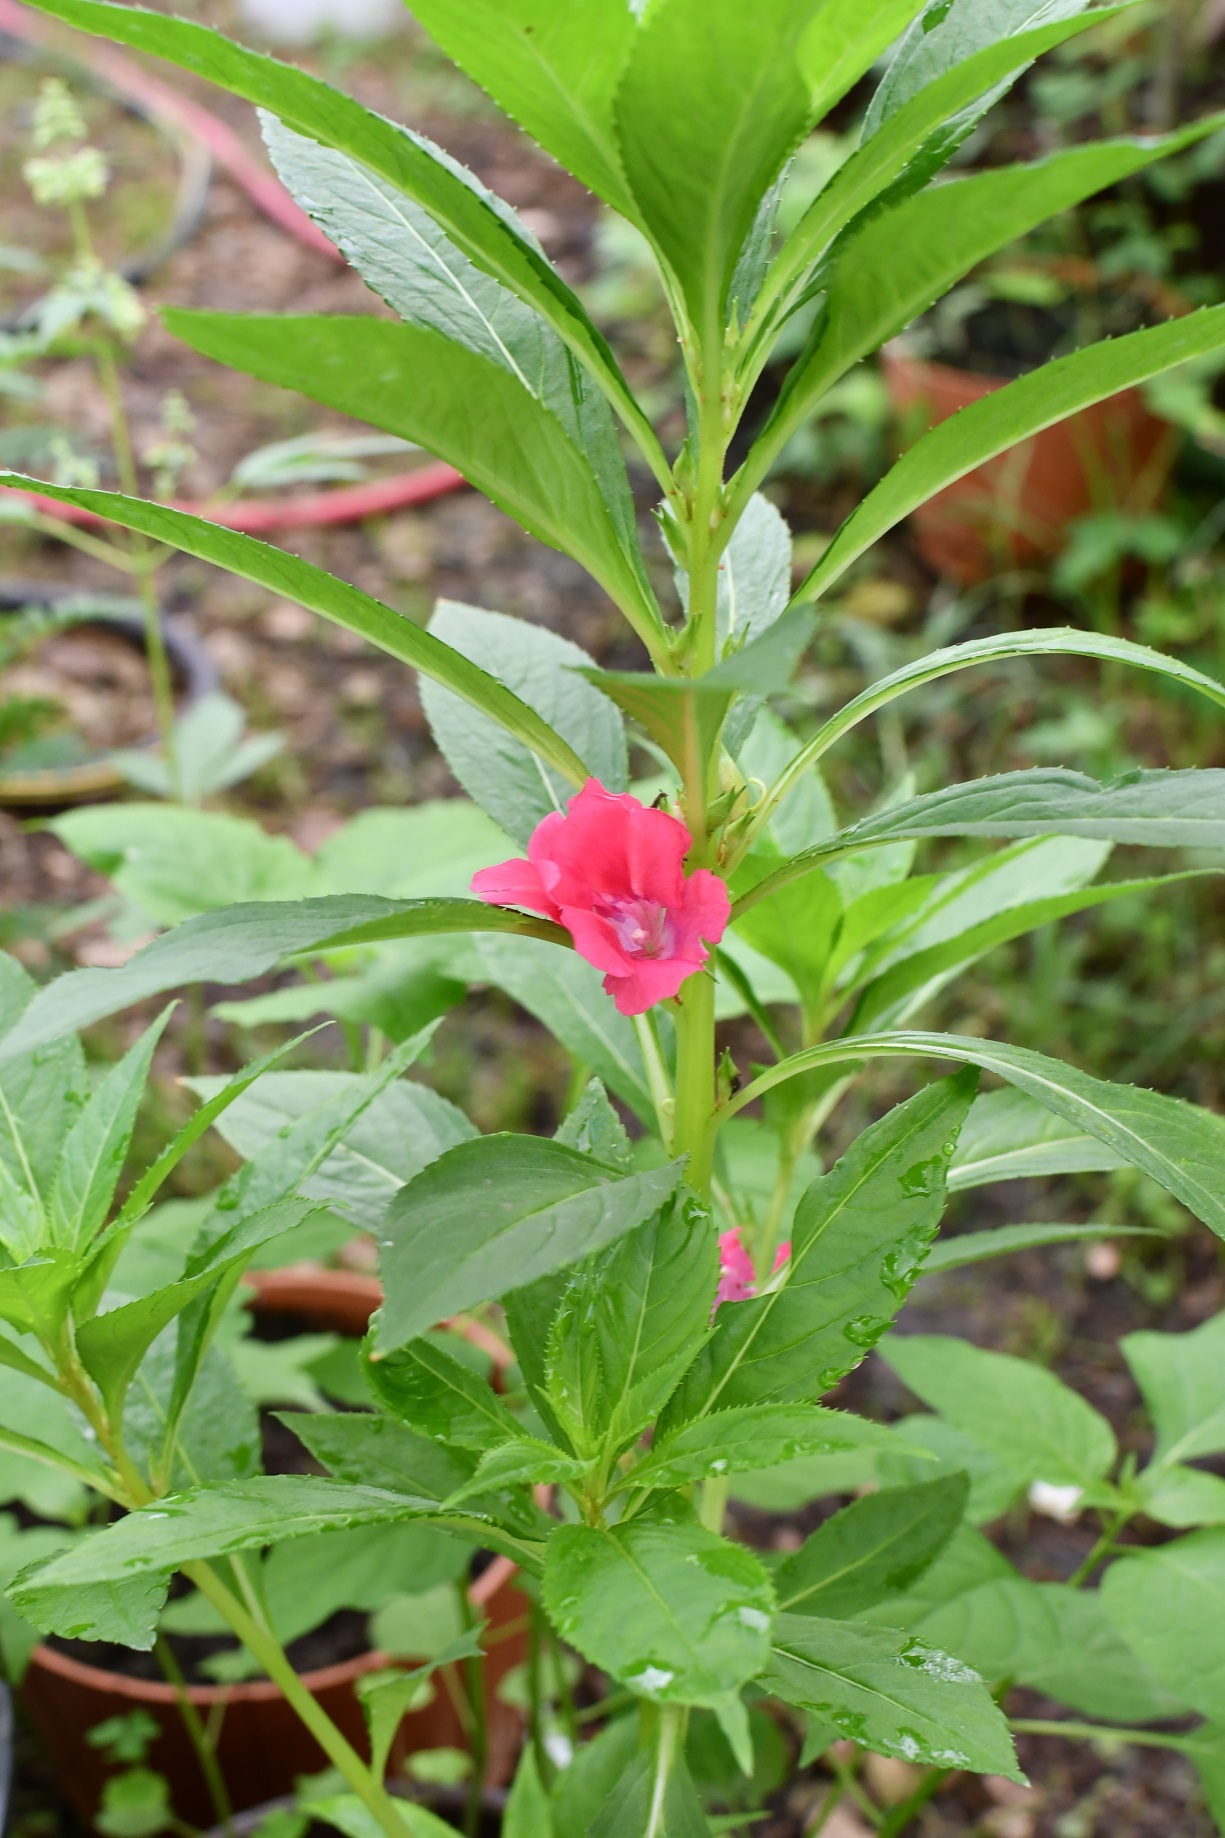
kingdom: Plantae
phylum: Tracheophyta
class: Magnoliopsida
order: Ericales
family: Balsaminaceae
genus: Impatiens
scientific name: Impatiens balsamina
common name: Balsam
